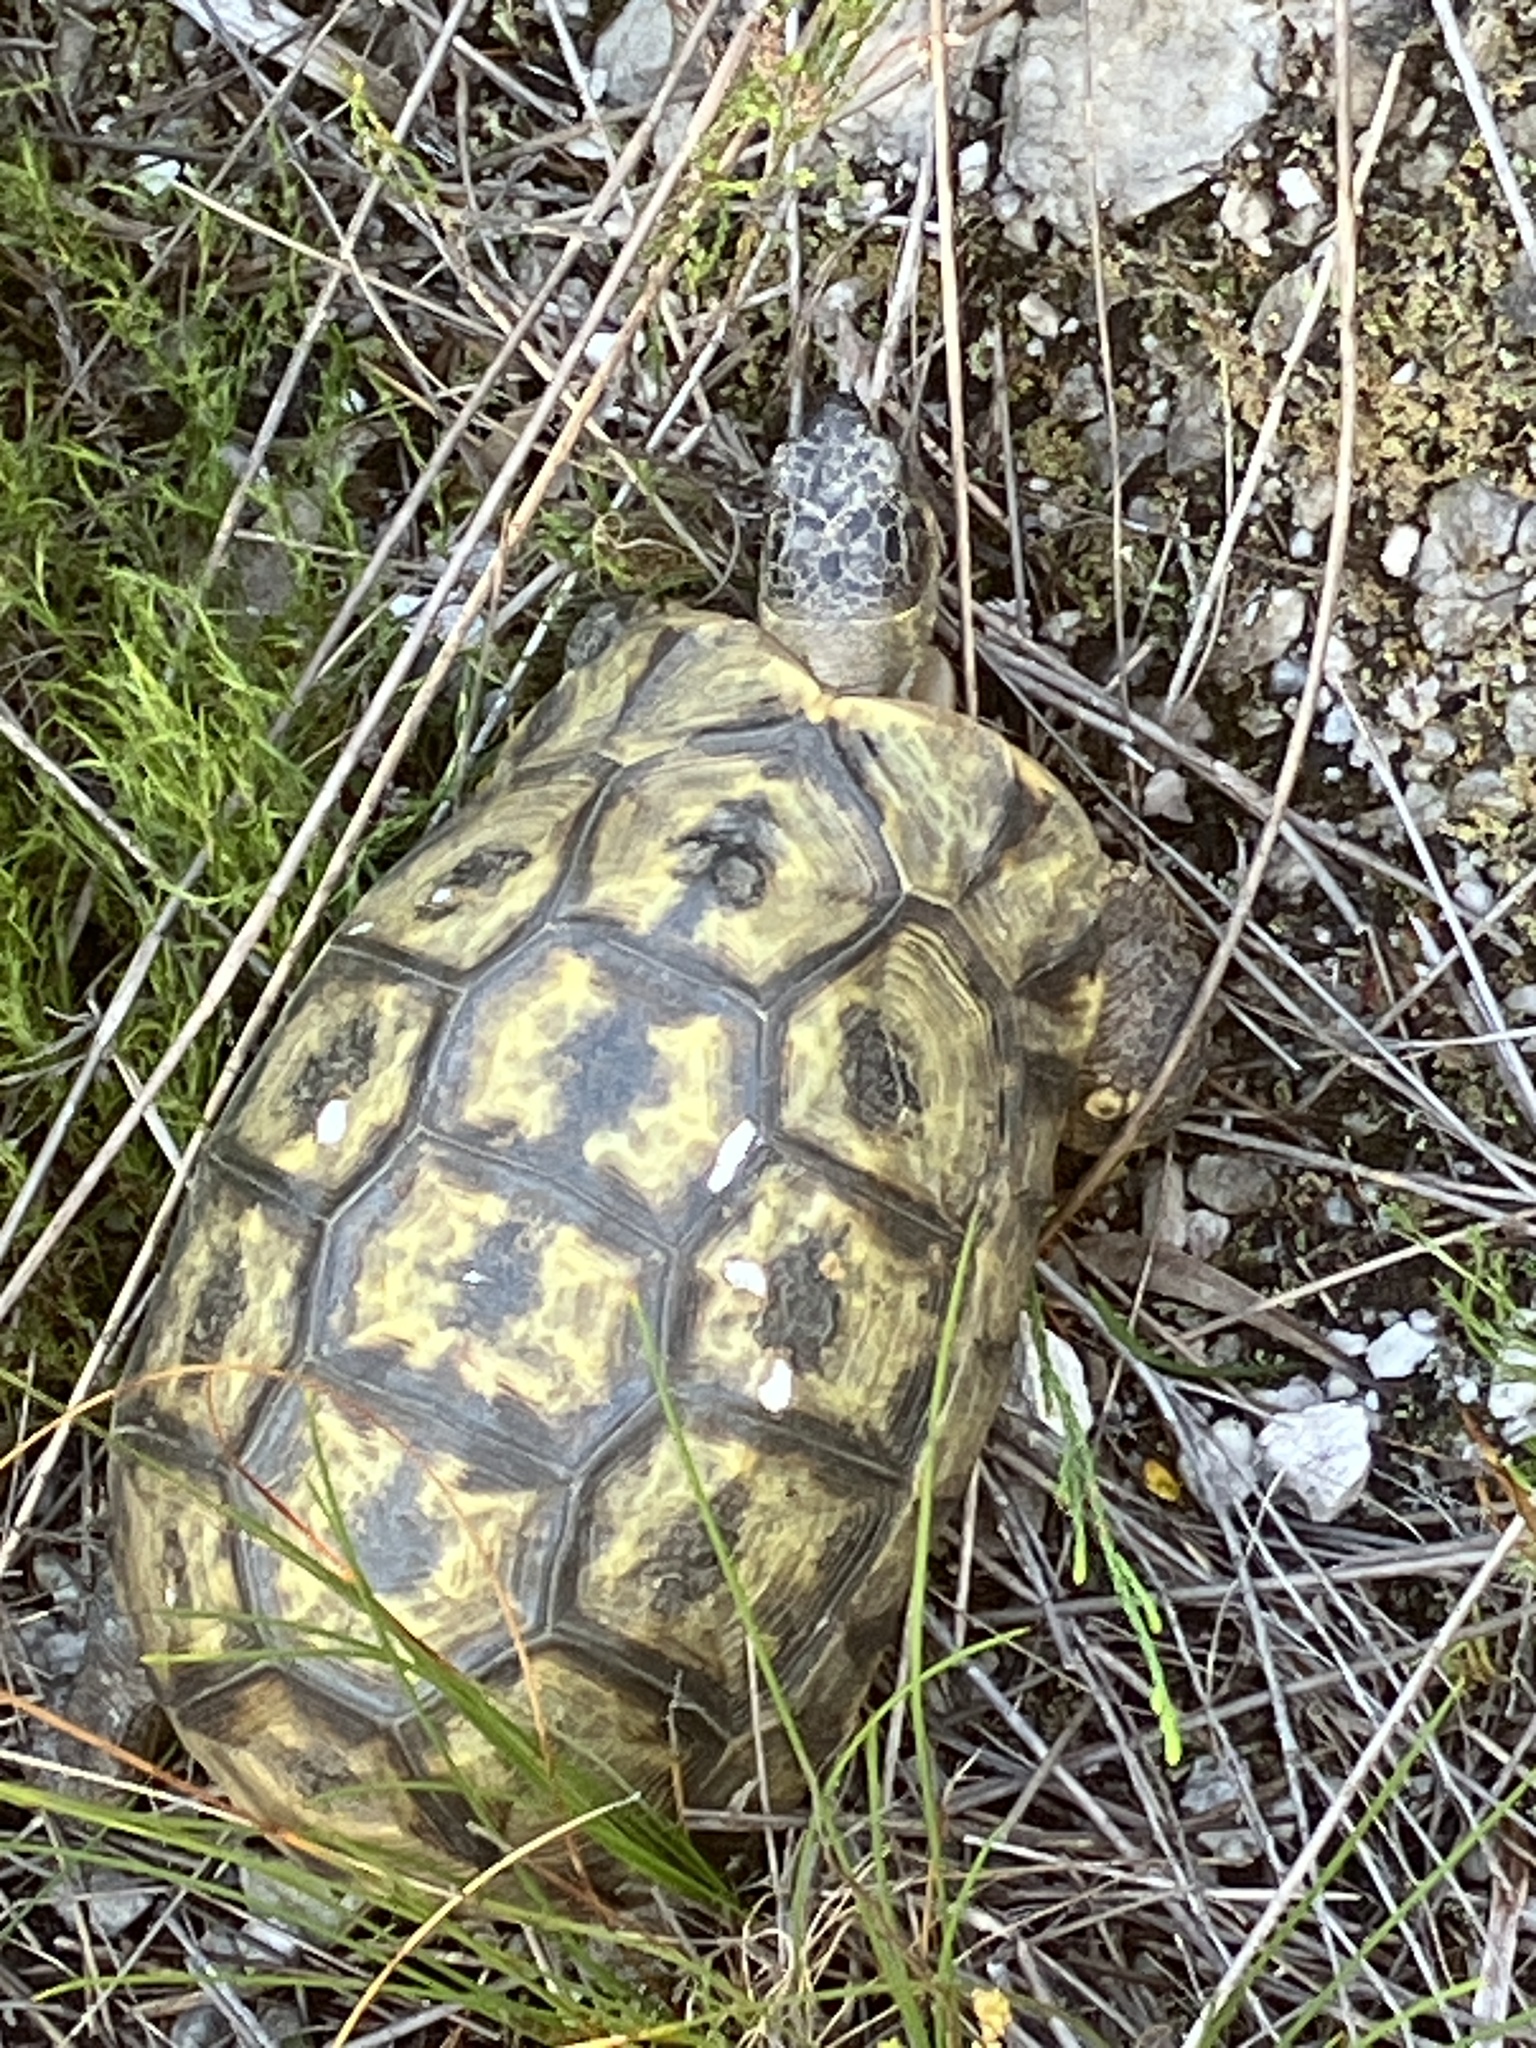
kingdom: Animalia
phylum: Chordata
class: Testudines
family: Testudinidae
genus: Chersina
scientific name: Chersina angulata
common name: South african bowsprit tortoise
